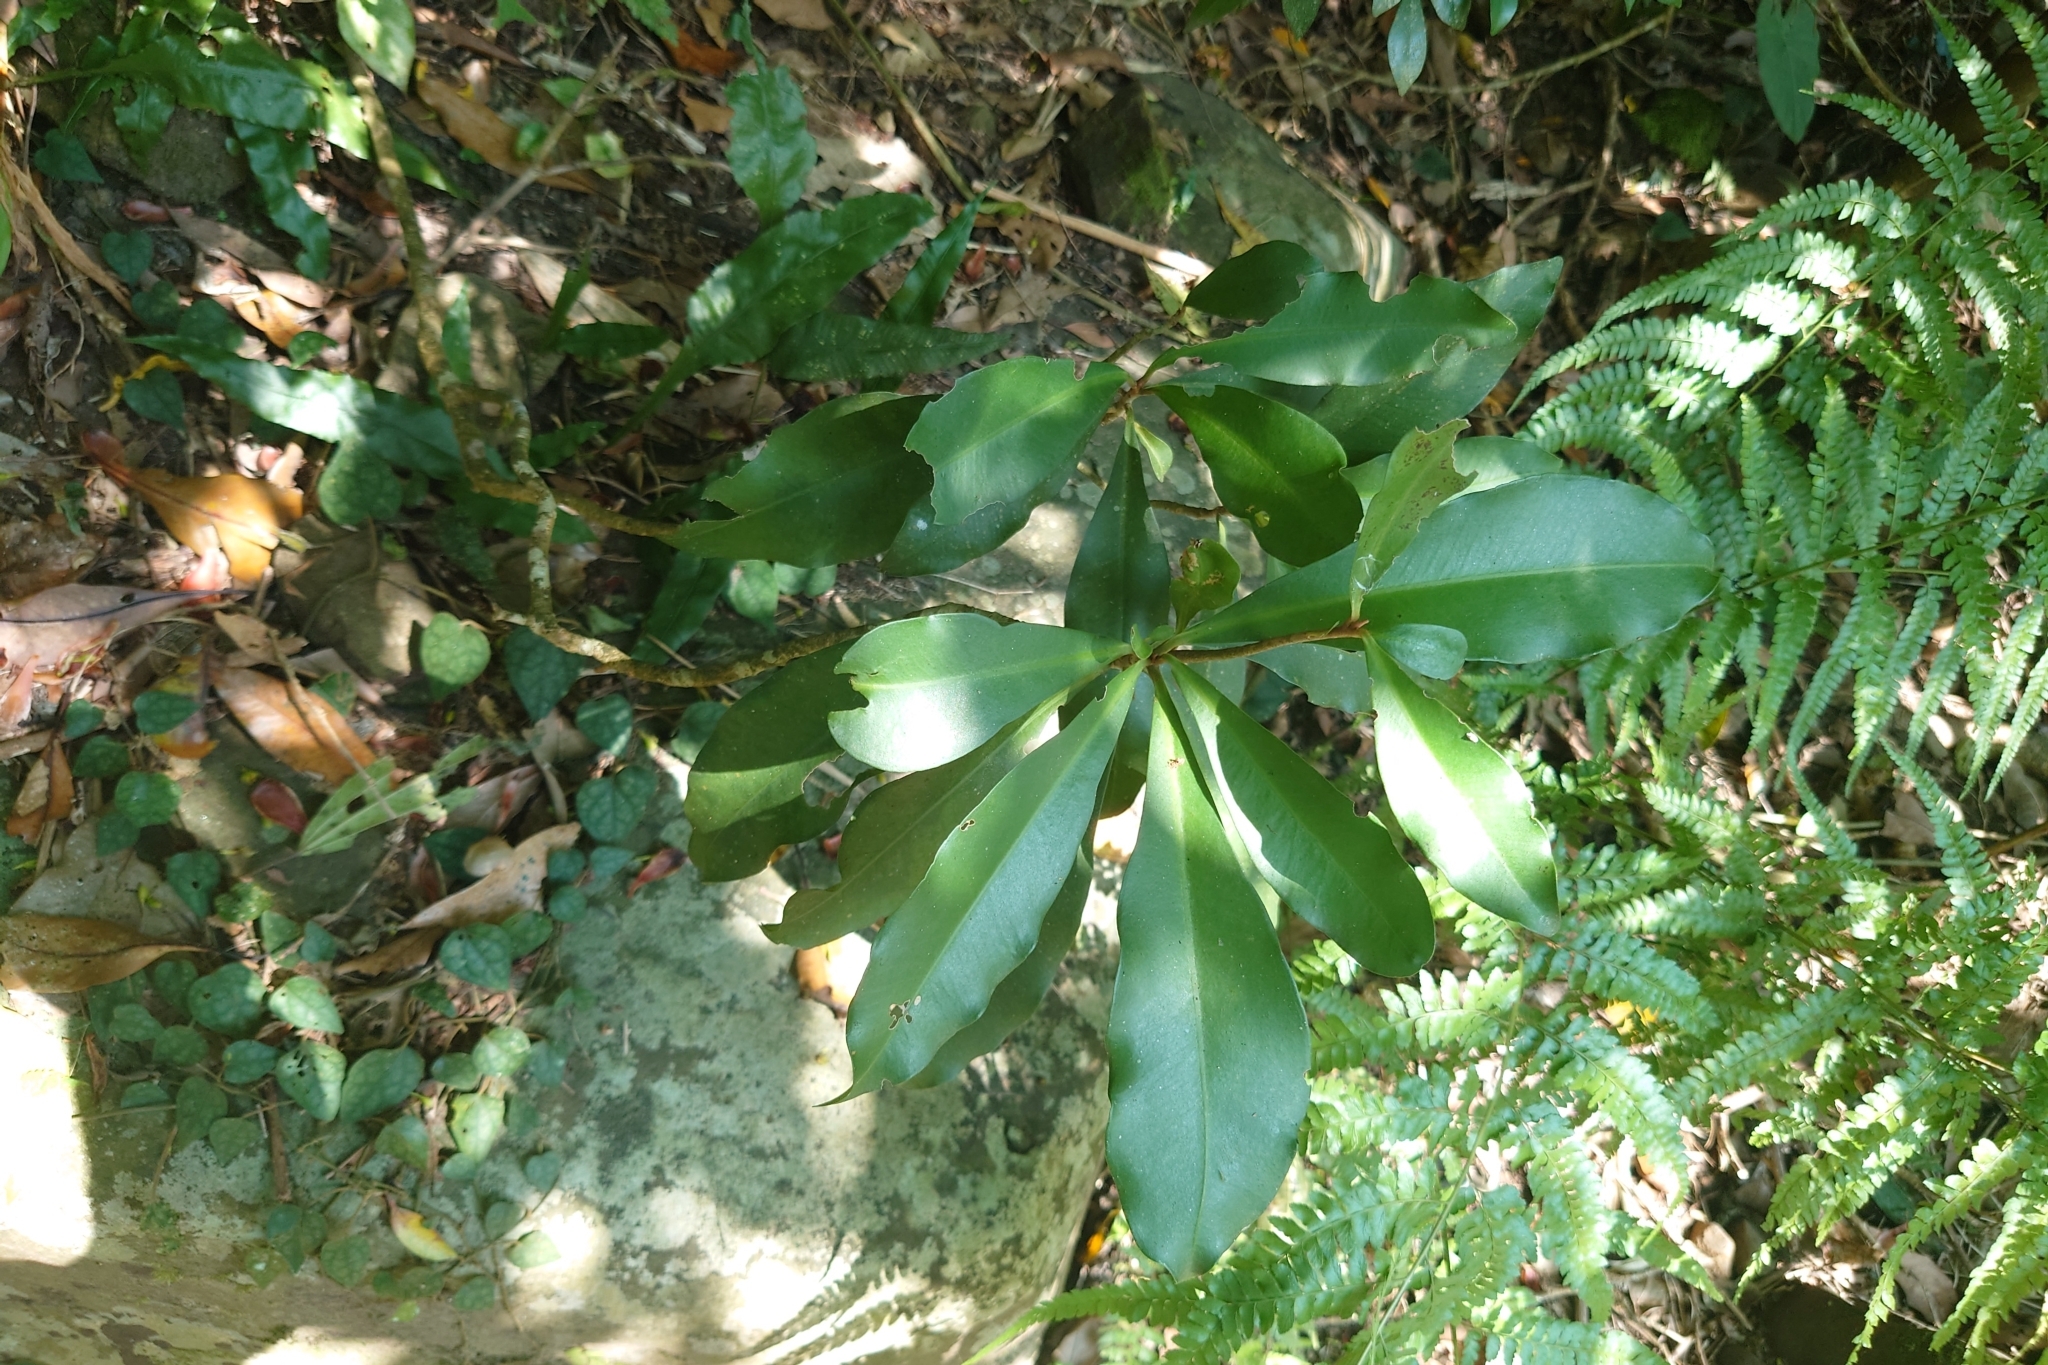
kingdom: Plantae
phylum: Tracheophyta
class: Magnoliopsida
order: Ericales
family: Primulaceae
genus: Ardisia
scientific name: Ardisia quinquegona
